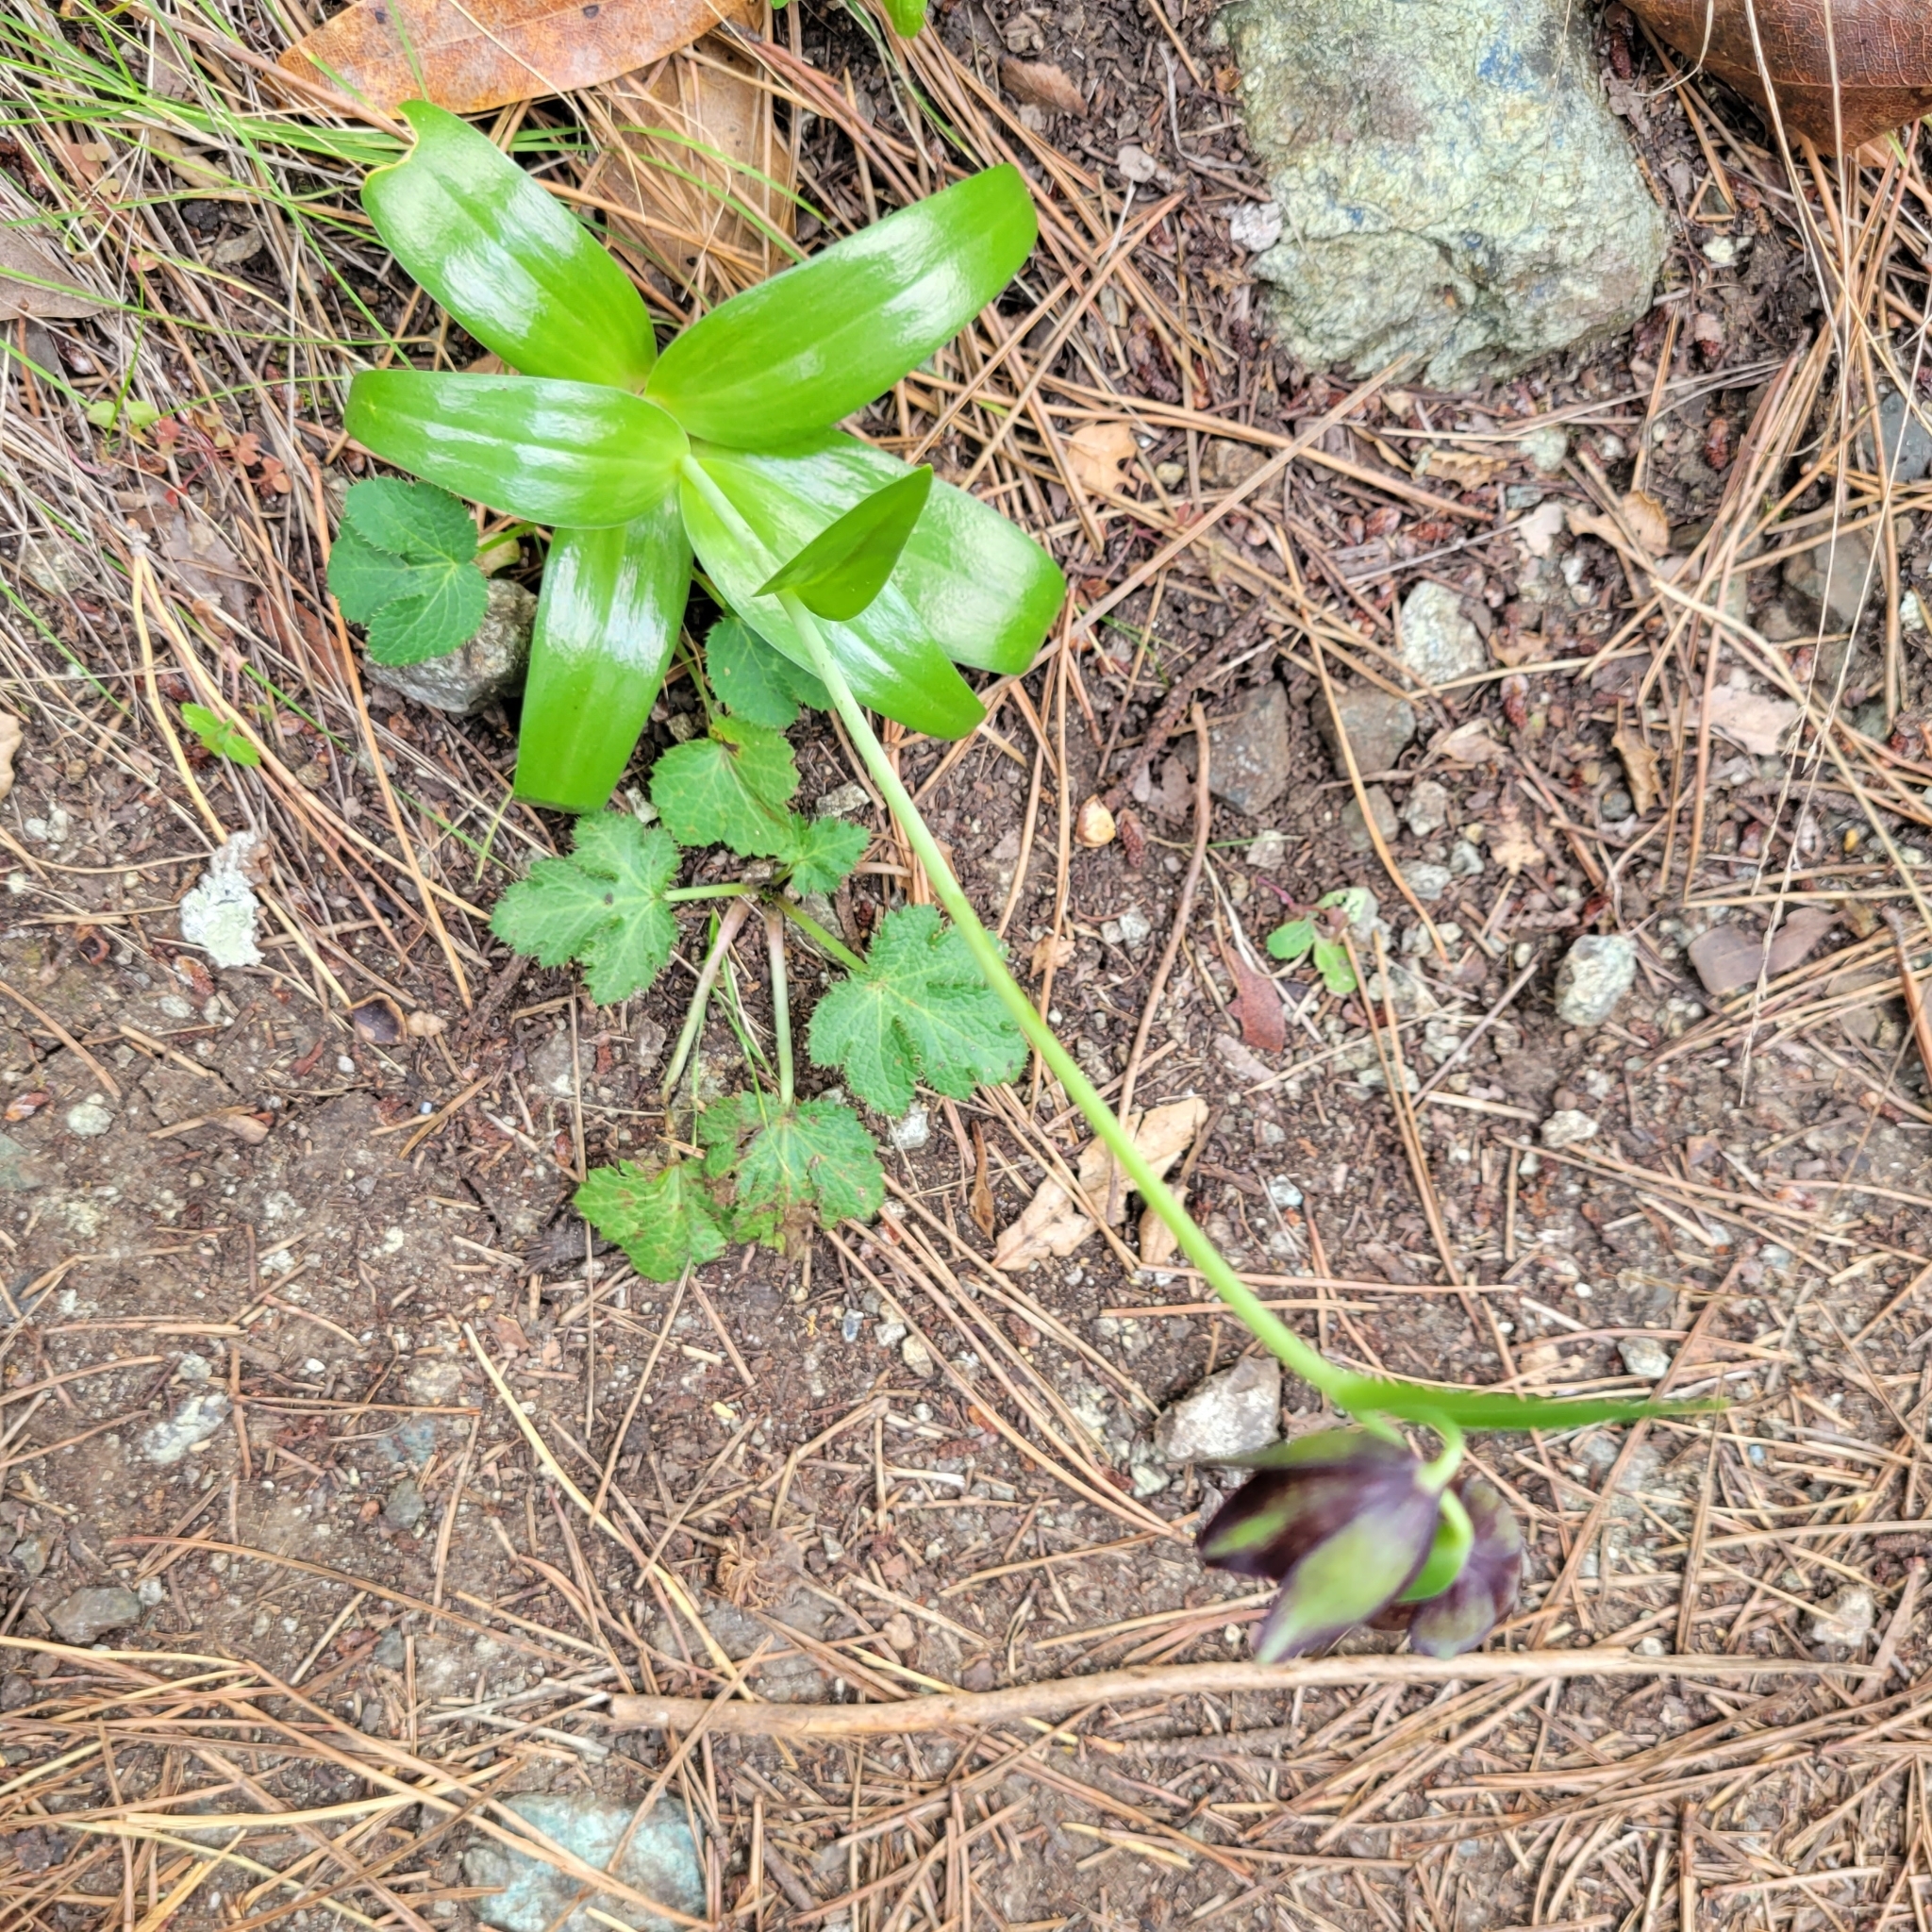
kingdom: Plantae
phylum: Tracheophyta
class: Liliopsida
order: Liliales
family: Liliaceae
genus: Fritillaria
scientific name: Fritillaria biflora
